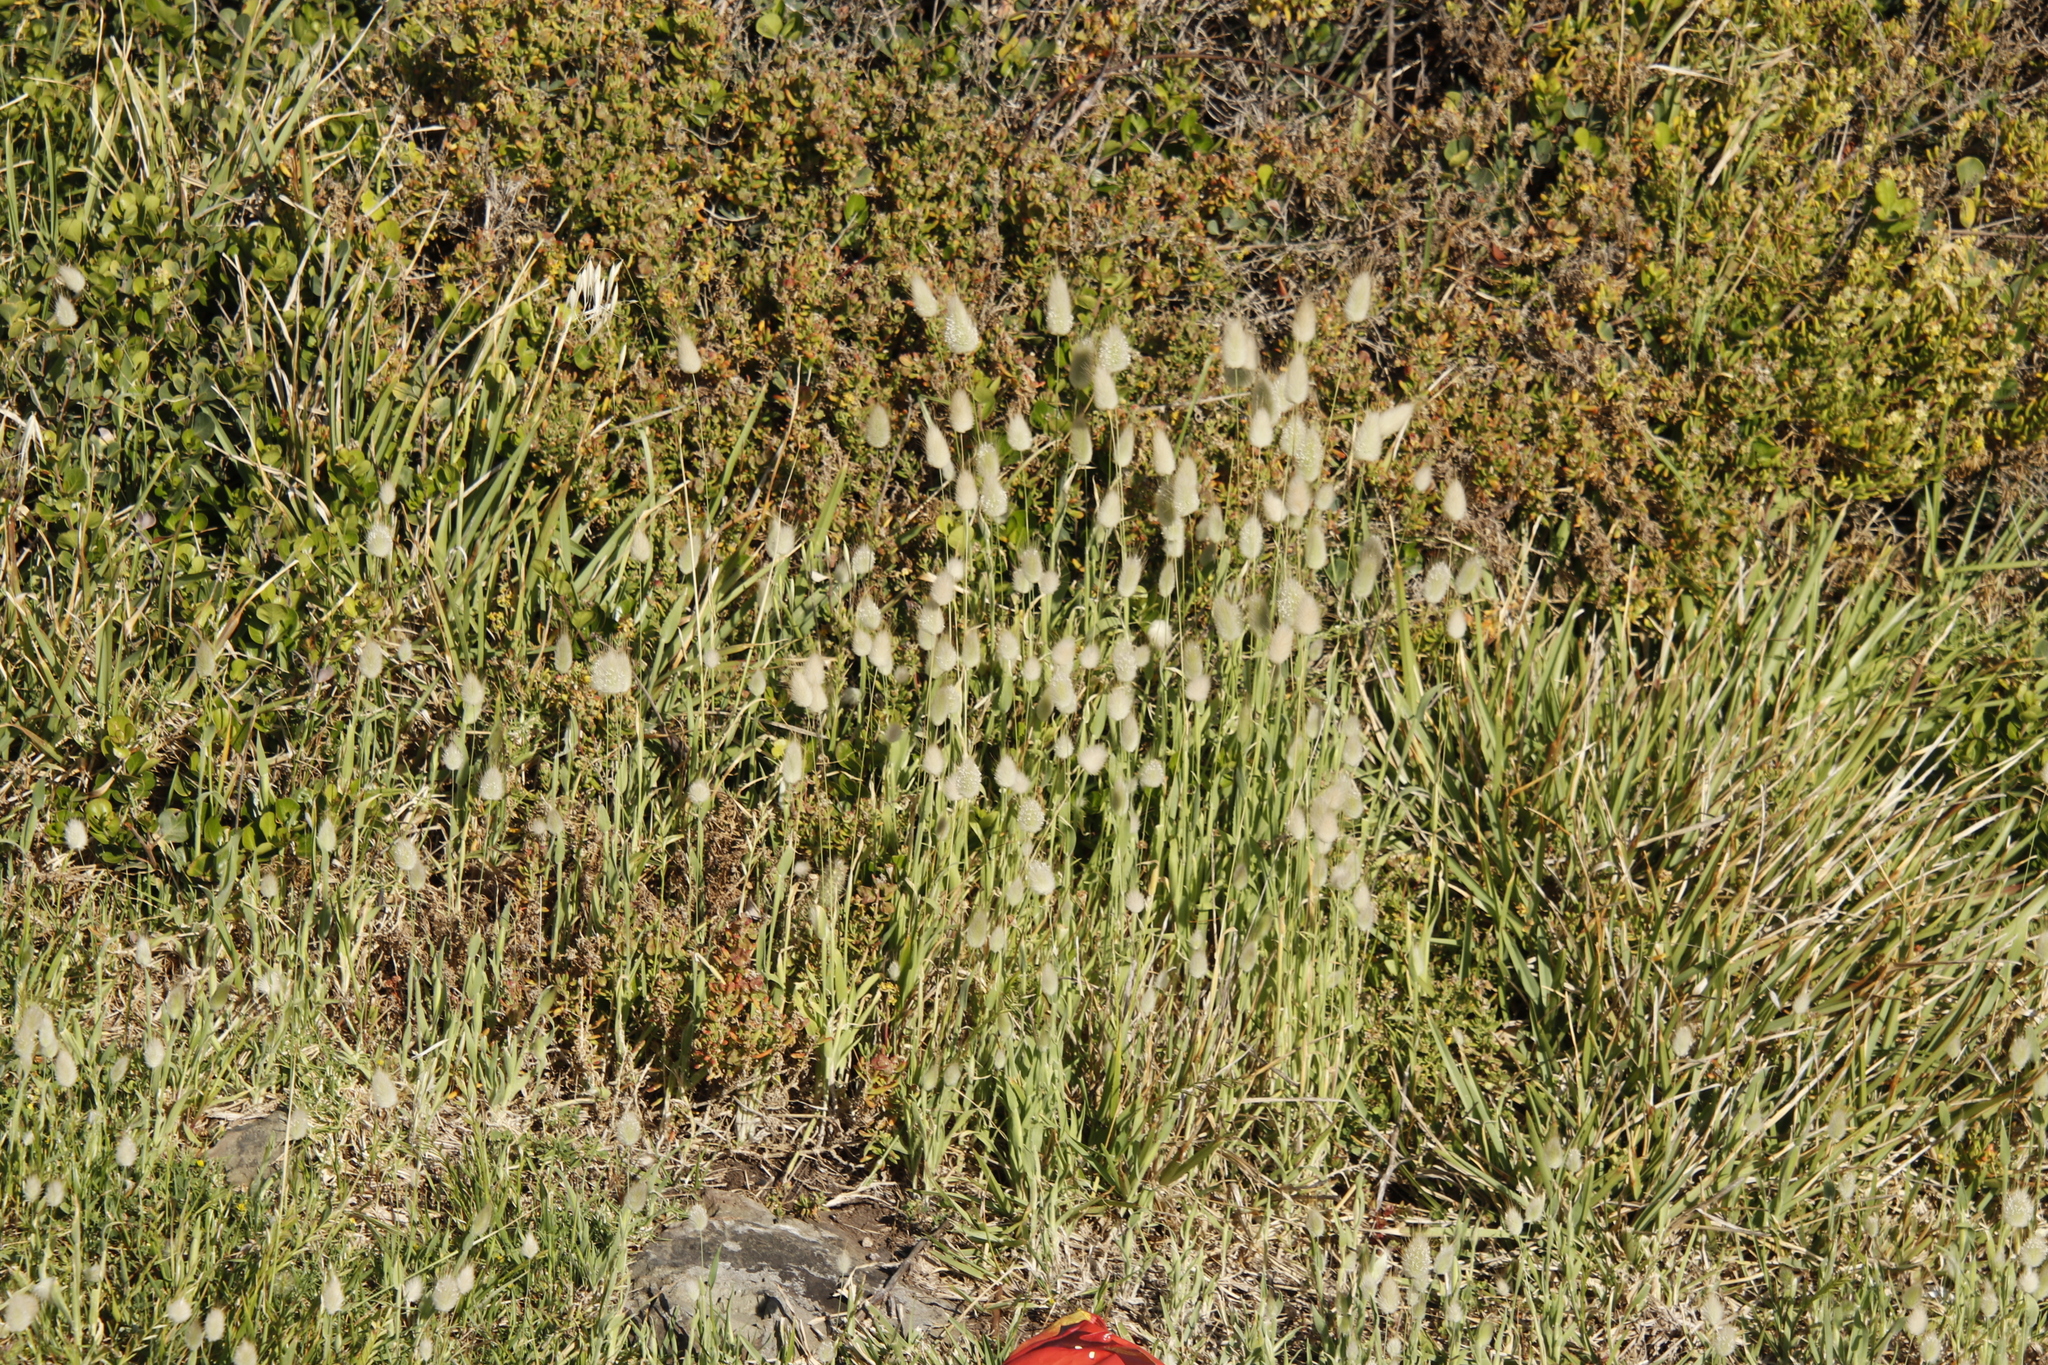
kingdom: Plantae
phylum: Tracheophyta
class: Liliopsida
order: Poales
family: Poaceae
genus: Lagurus
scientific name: Lagurus ovatus
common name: Hare's-tail
